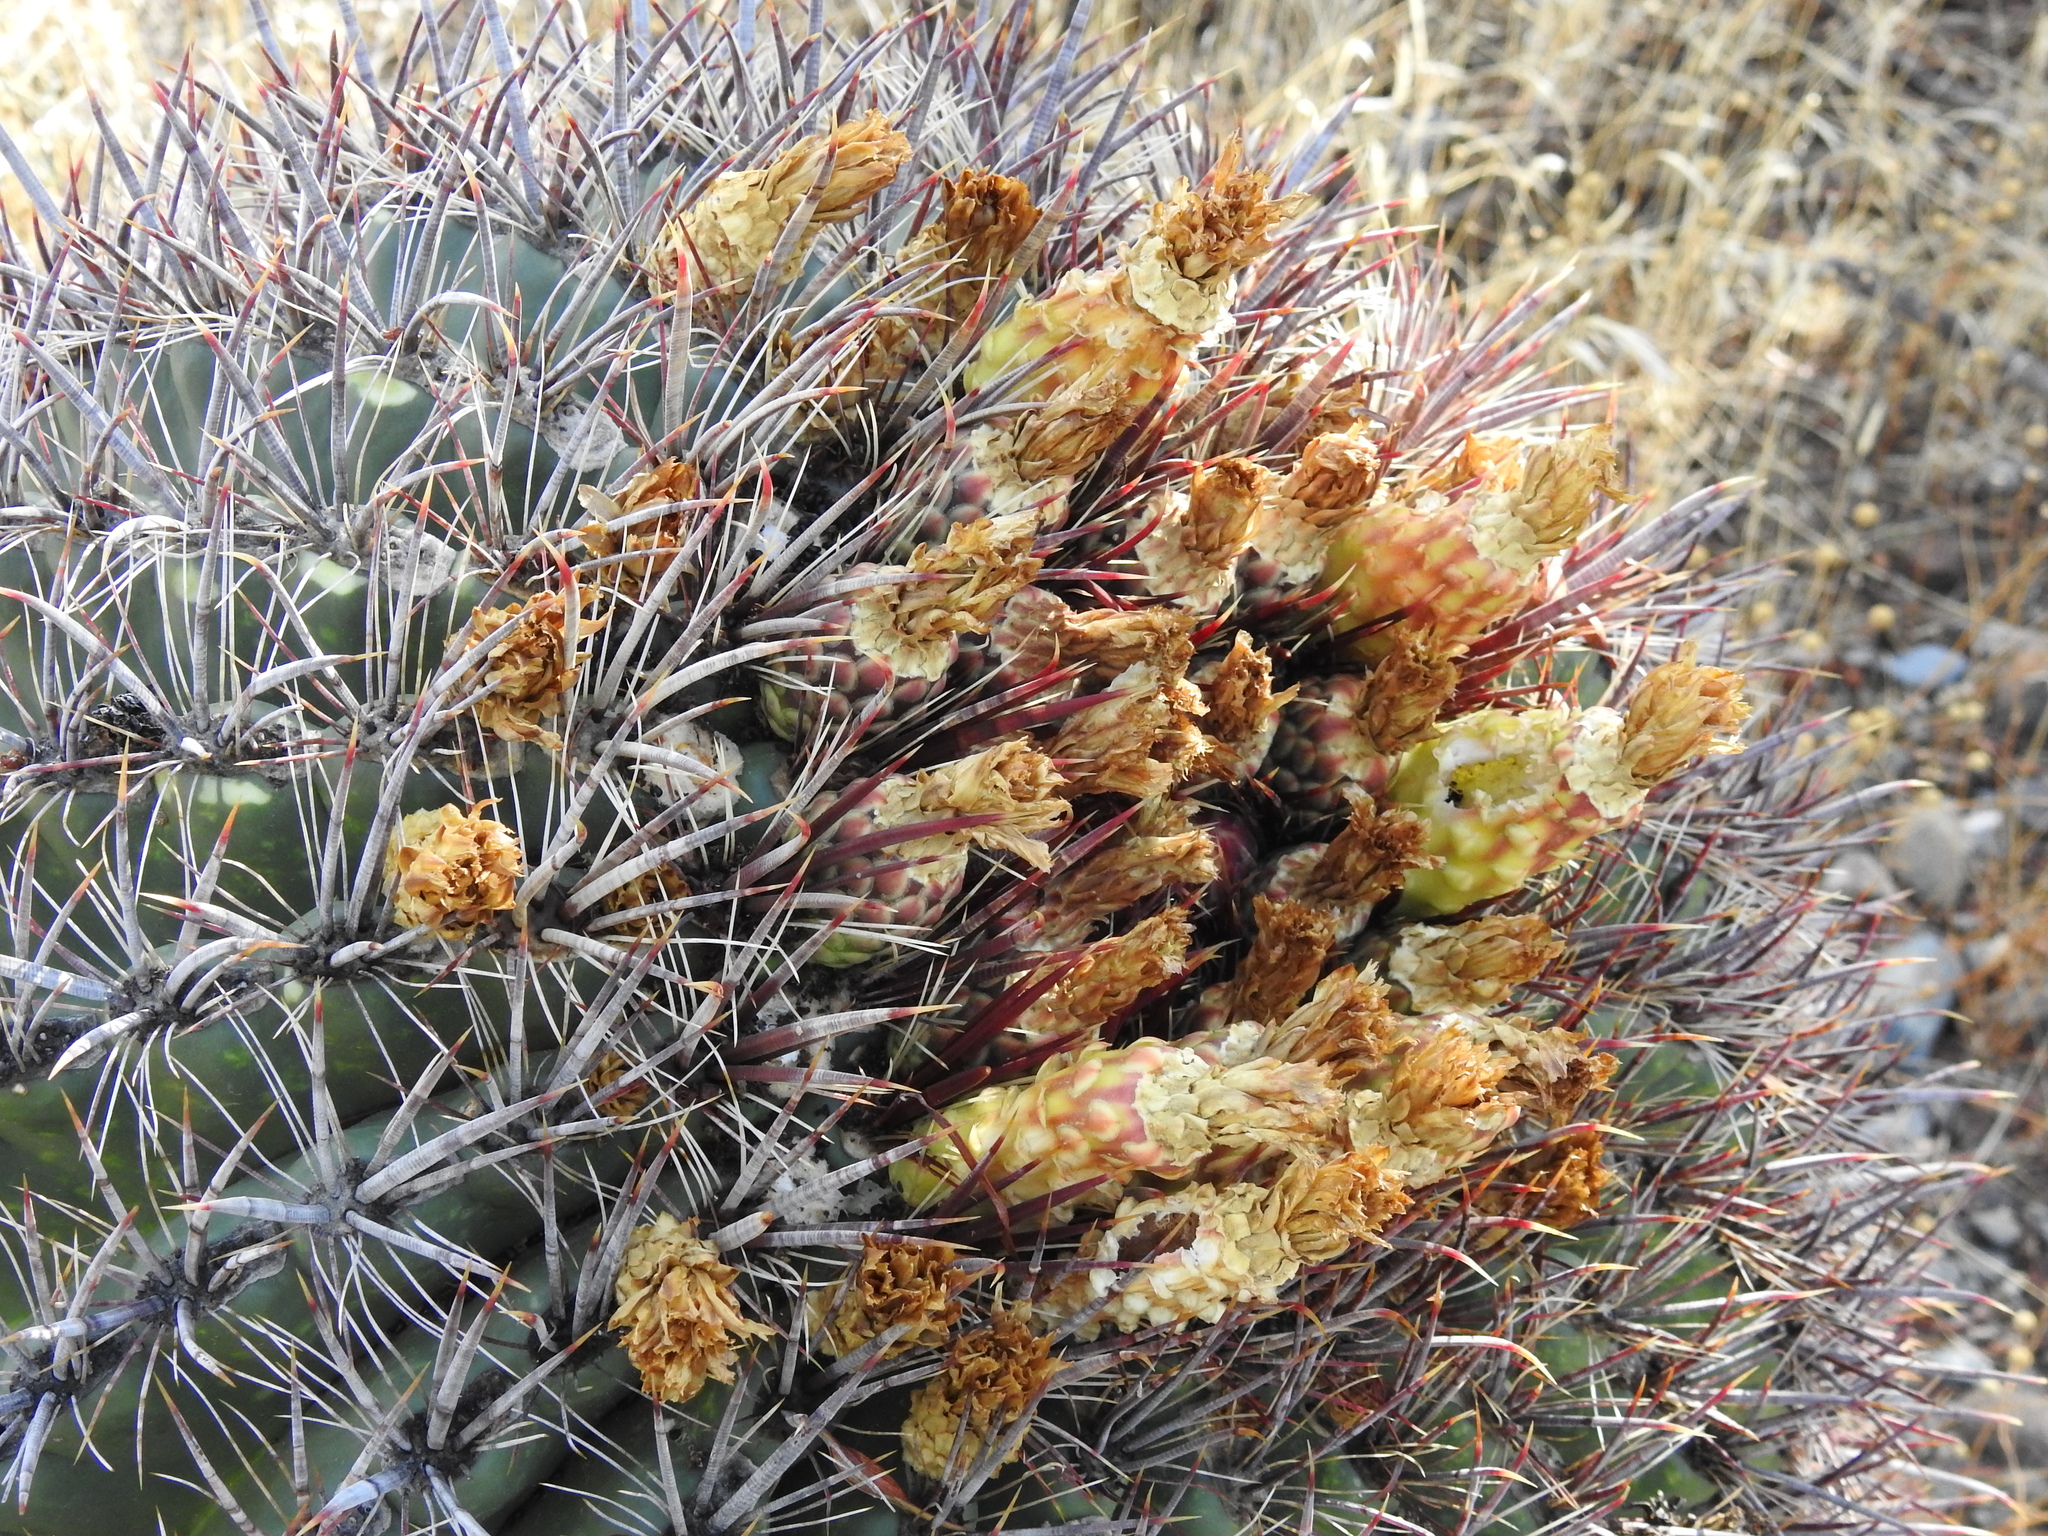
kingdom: Plantae
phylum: Tracheophyta
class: Magnoliopsida
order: Caryophyllales
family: Cactaceae
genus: Ferocactus
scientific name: Ferocactus cylindraceus
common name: California barrel cactus
